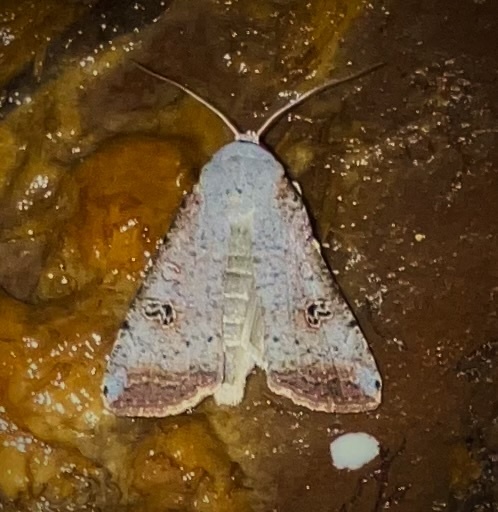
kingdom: Animalia
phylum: Arthropoda
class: Insecta
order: Lepidoptera
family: Noctuidae
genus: Anicla
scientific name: Anicla infecta
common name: Green cutworm
